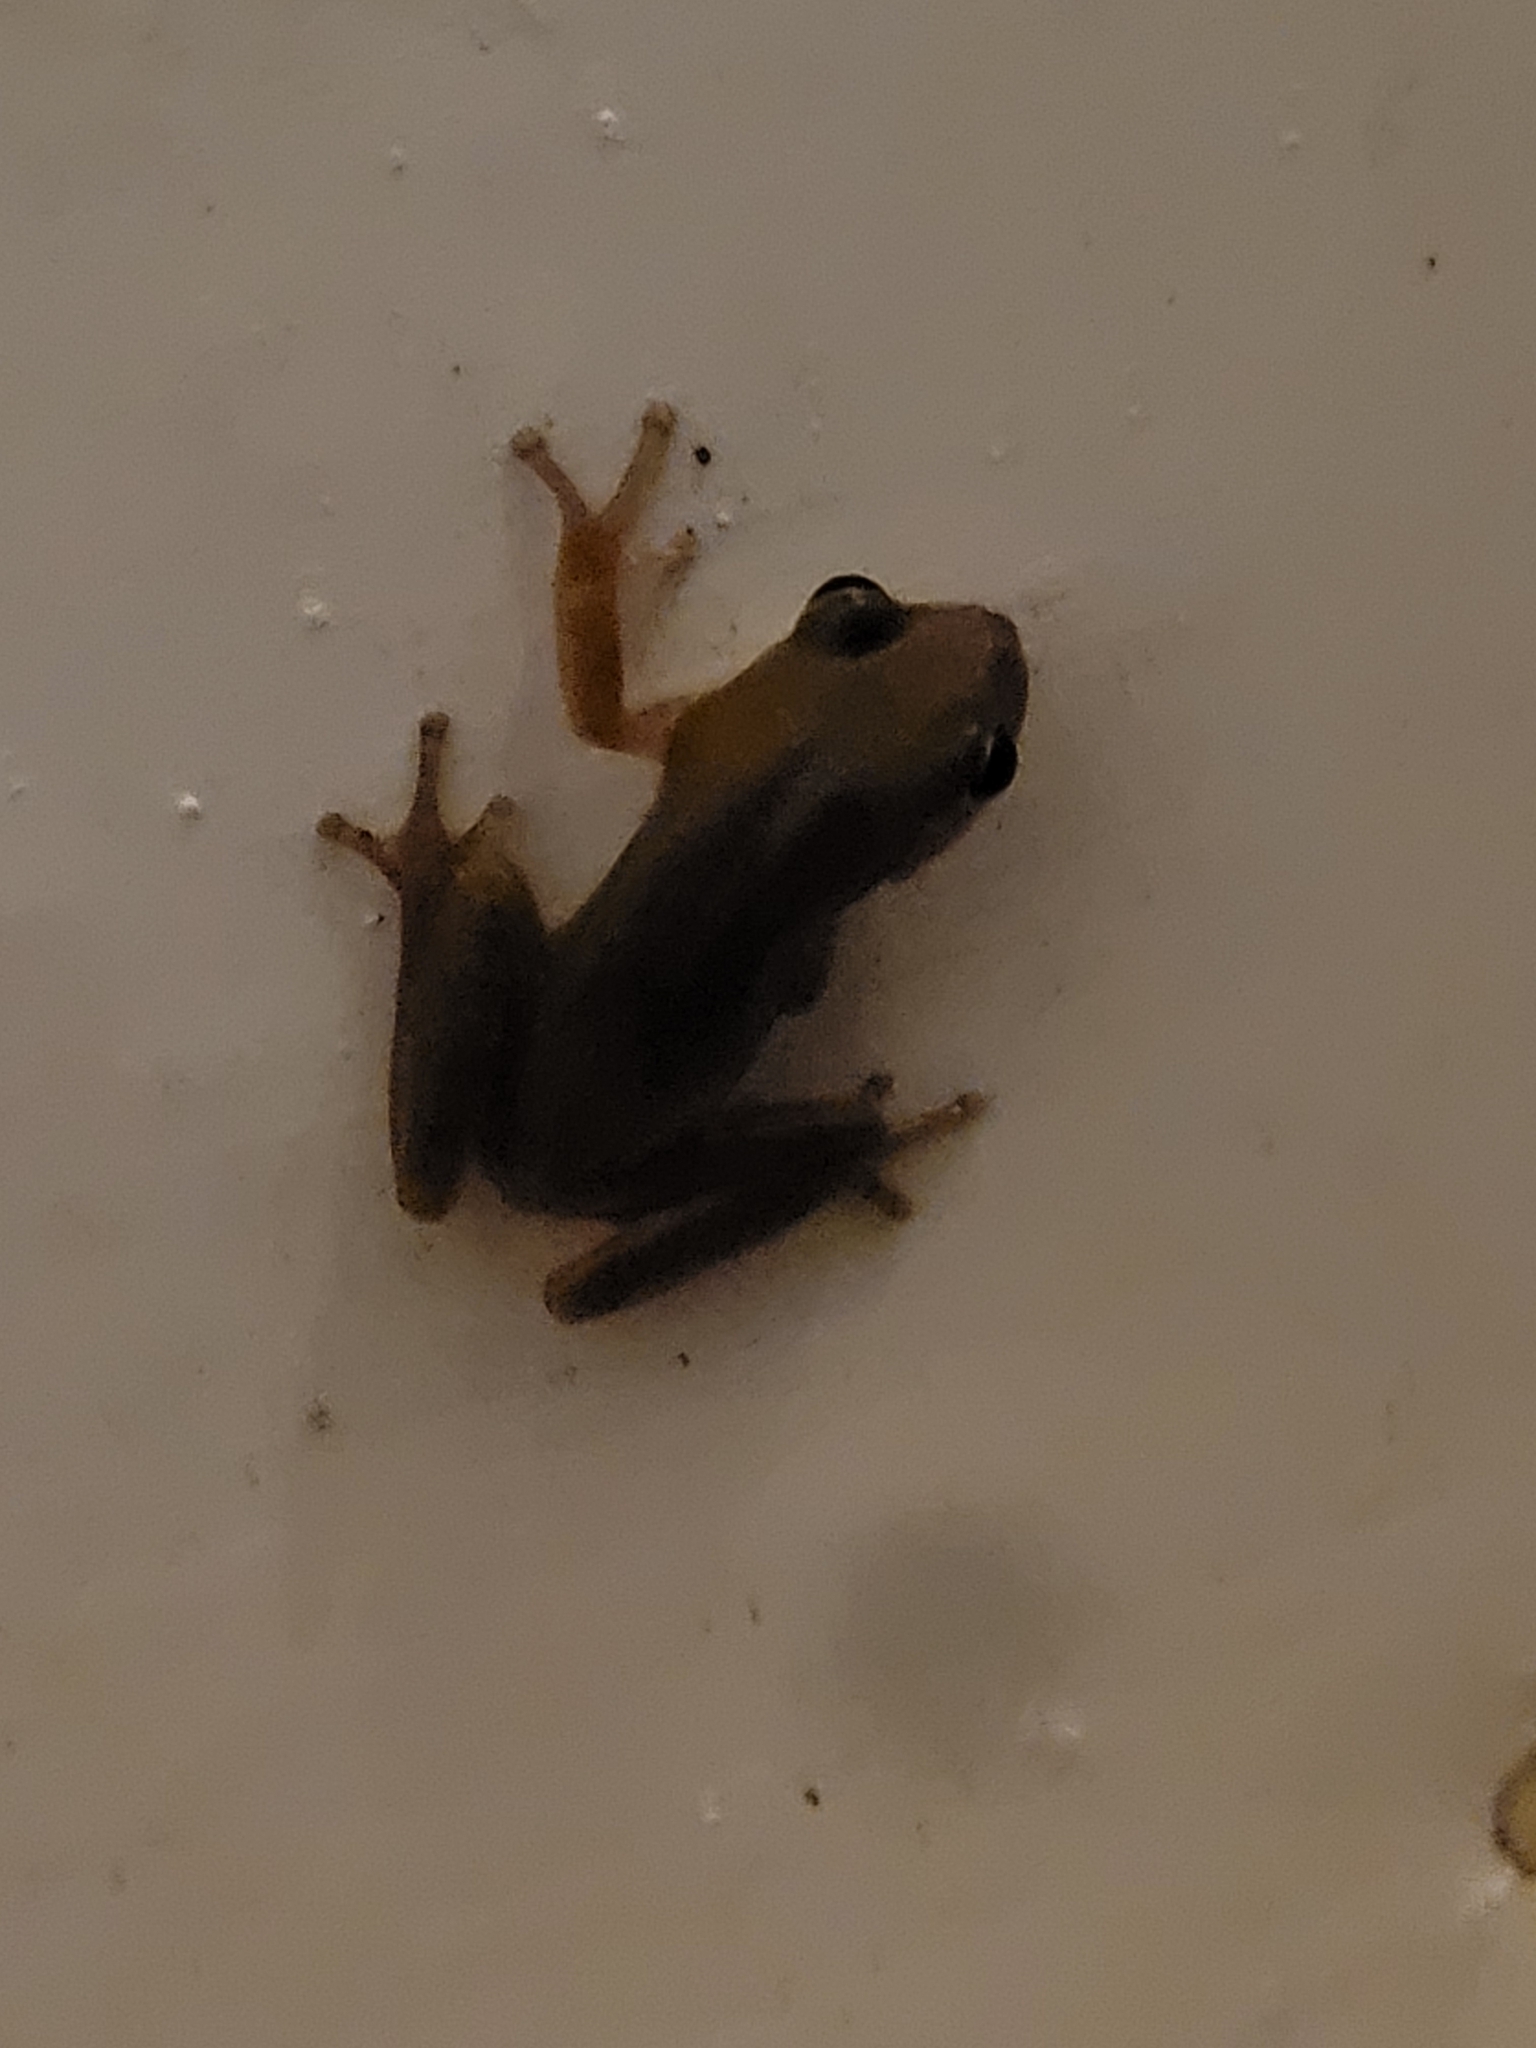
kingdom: Animalia
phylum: Chordata
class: Amphibia
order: Anura
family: Hylidae
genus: Dryophytes
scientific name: Dryophytes squirellus
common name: Squirrel treefrog
